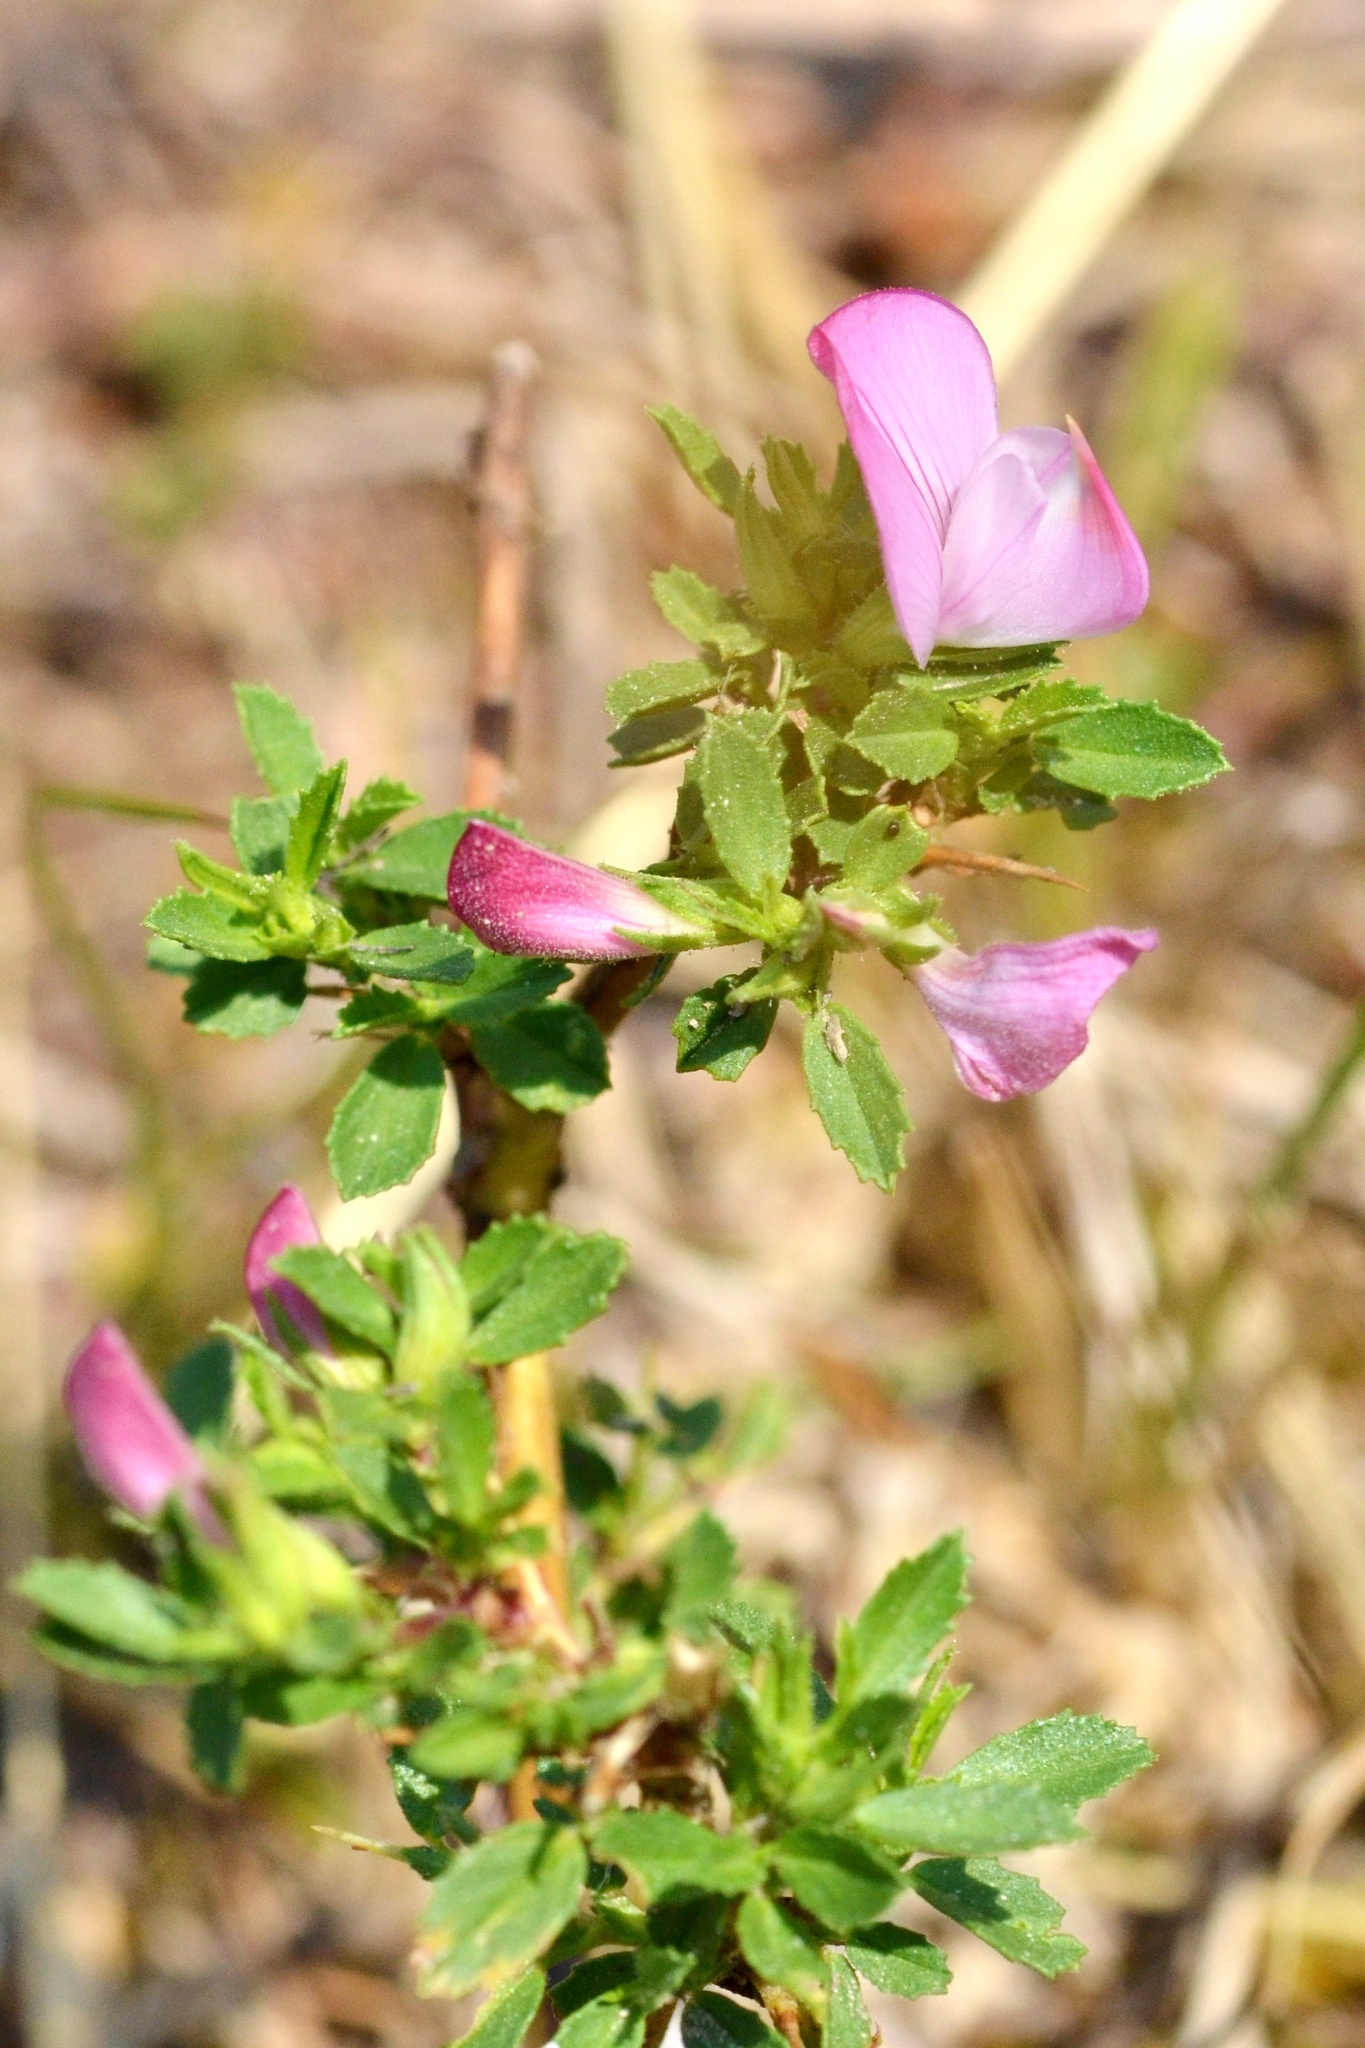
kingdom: Plantae
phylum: Tracheophyta
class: Magnoliopsida
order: Fabales
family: Fabaceae
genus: Ononis
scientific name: Ononis spinosa
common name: Spiny restharrow
